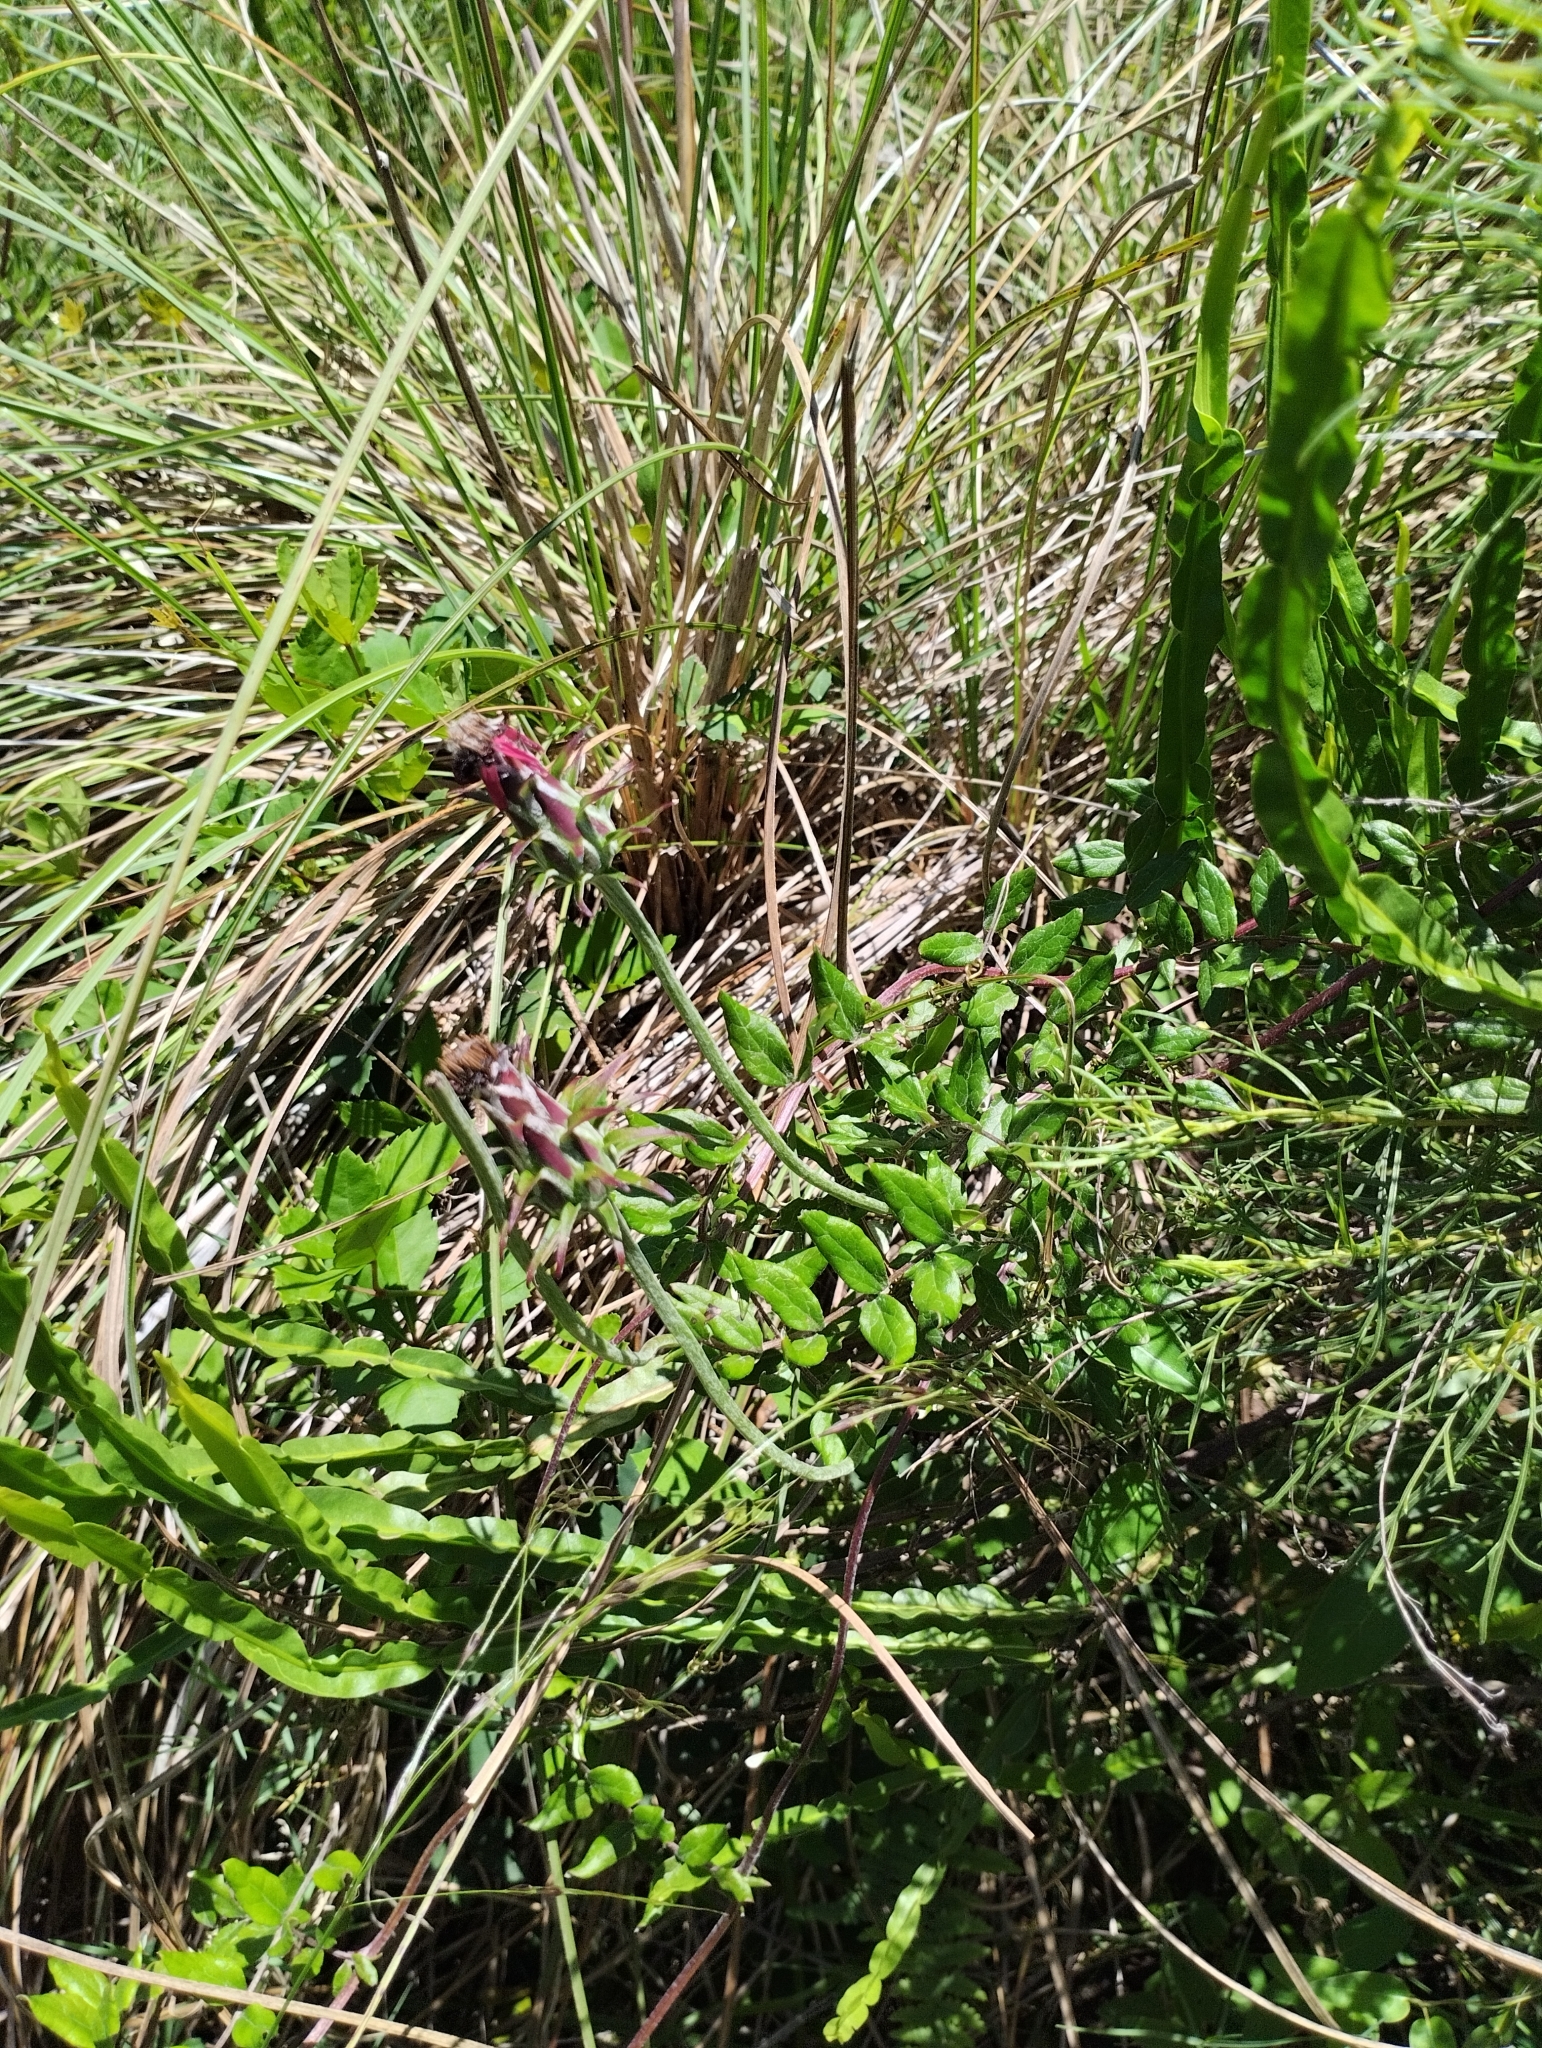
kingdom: Plantae
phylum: Tracheophyta
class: Magnoliopsida
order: Asterales
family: Asteraceae
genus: Mutisia
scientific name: Mutisia coccinea
